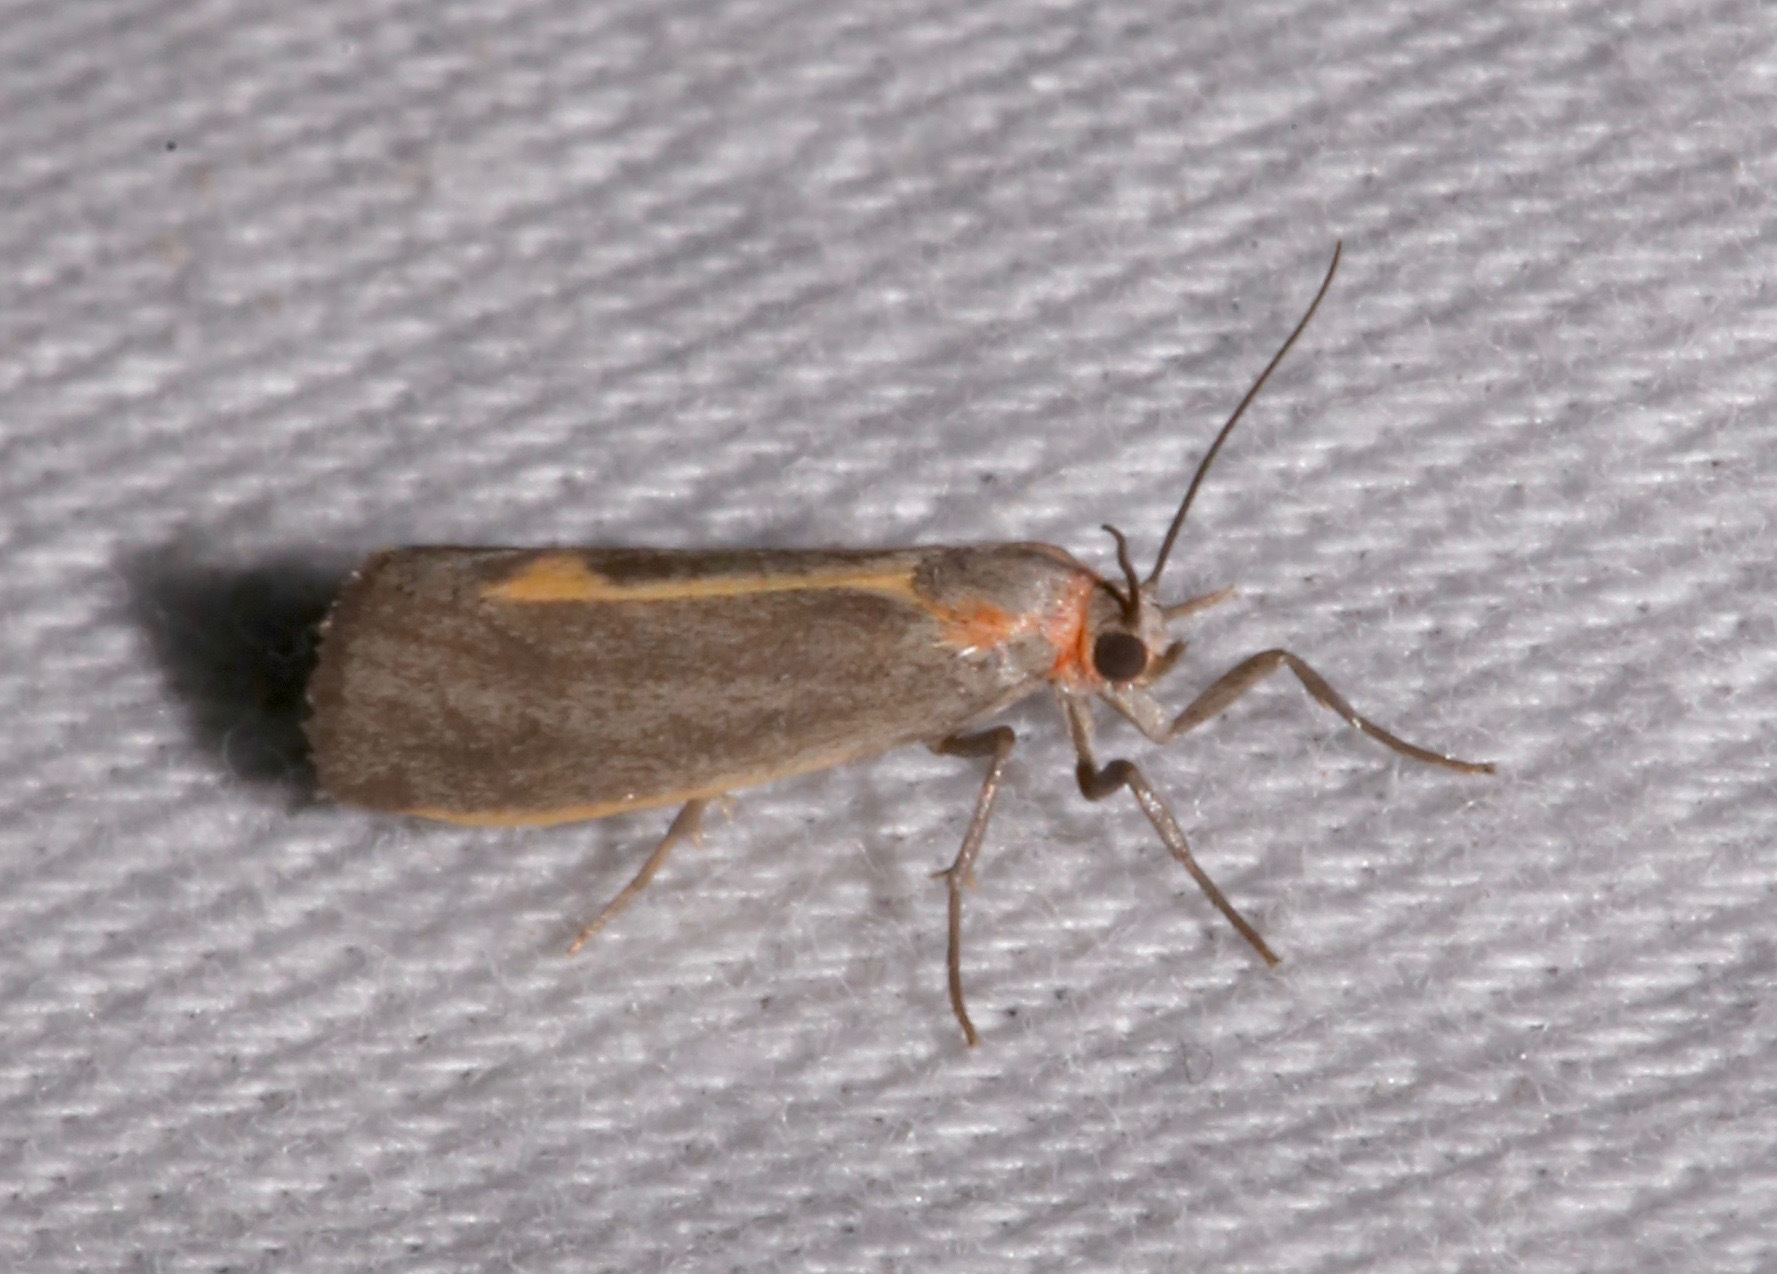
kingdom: Animalia
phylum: Arthropoda
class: Insecta
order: Lepidoptera
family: Erebidae
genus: Cisthene
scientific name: Cisthene striata
